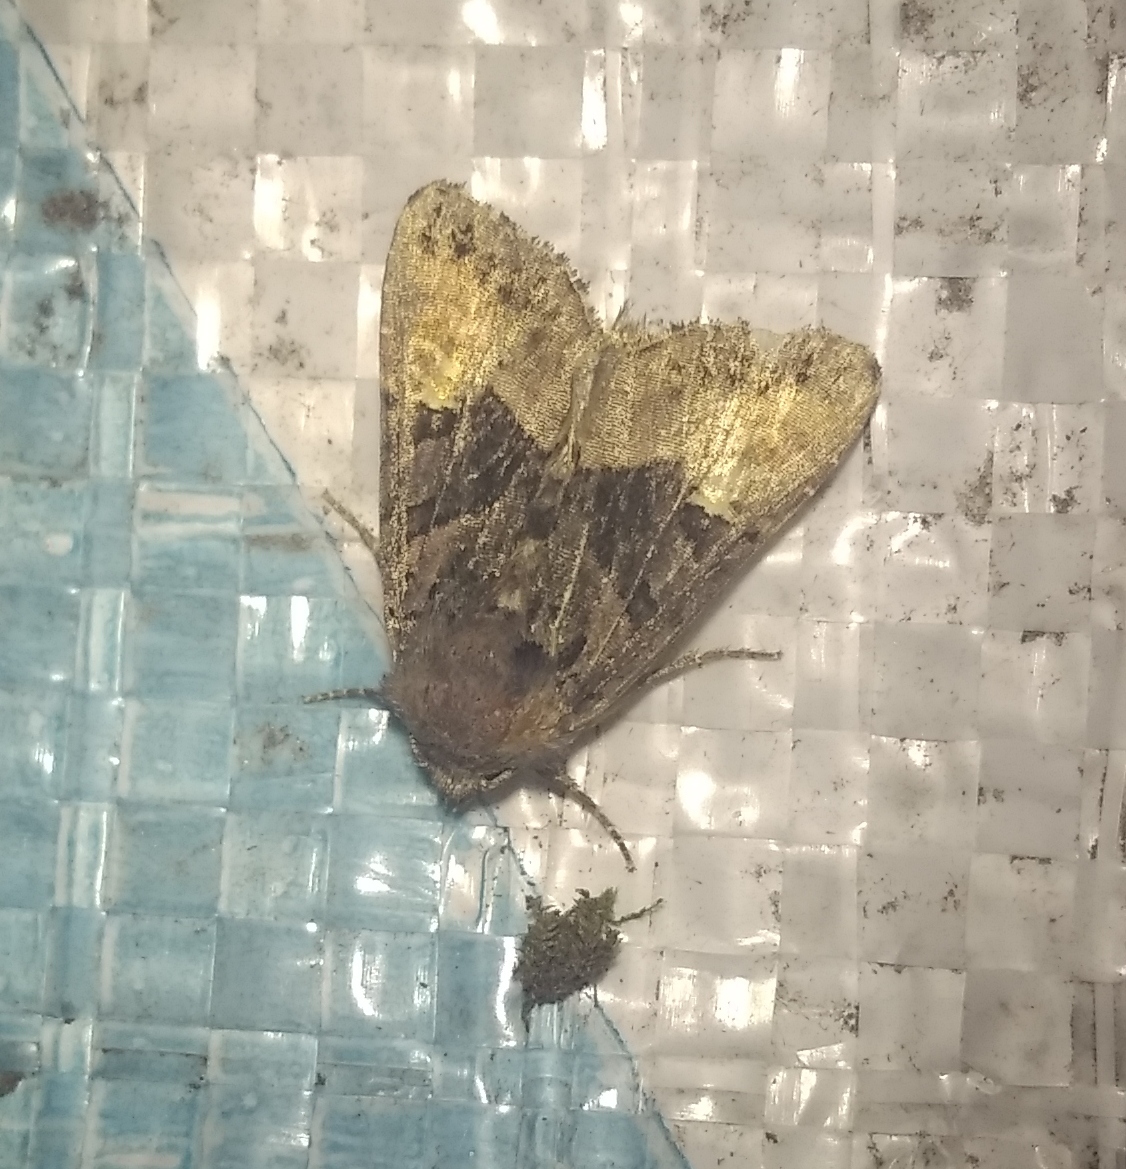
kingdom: Animalia
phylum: Arthropoda
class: Insecta
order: Lepidoptera
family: Noctuidae
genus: Euplexia
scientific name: Euplexia lucipara
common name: Small angle shades
